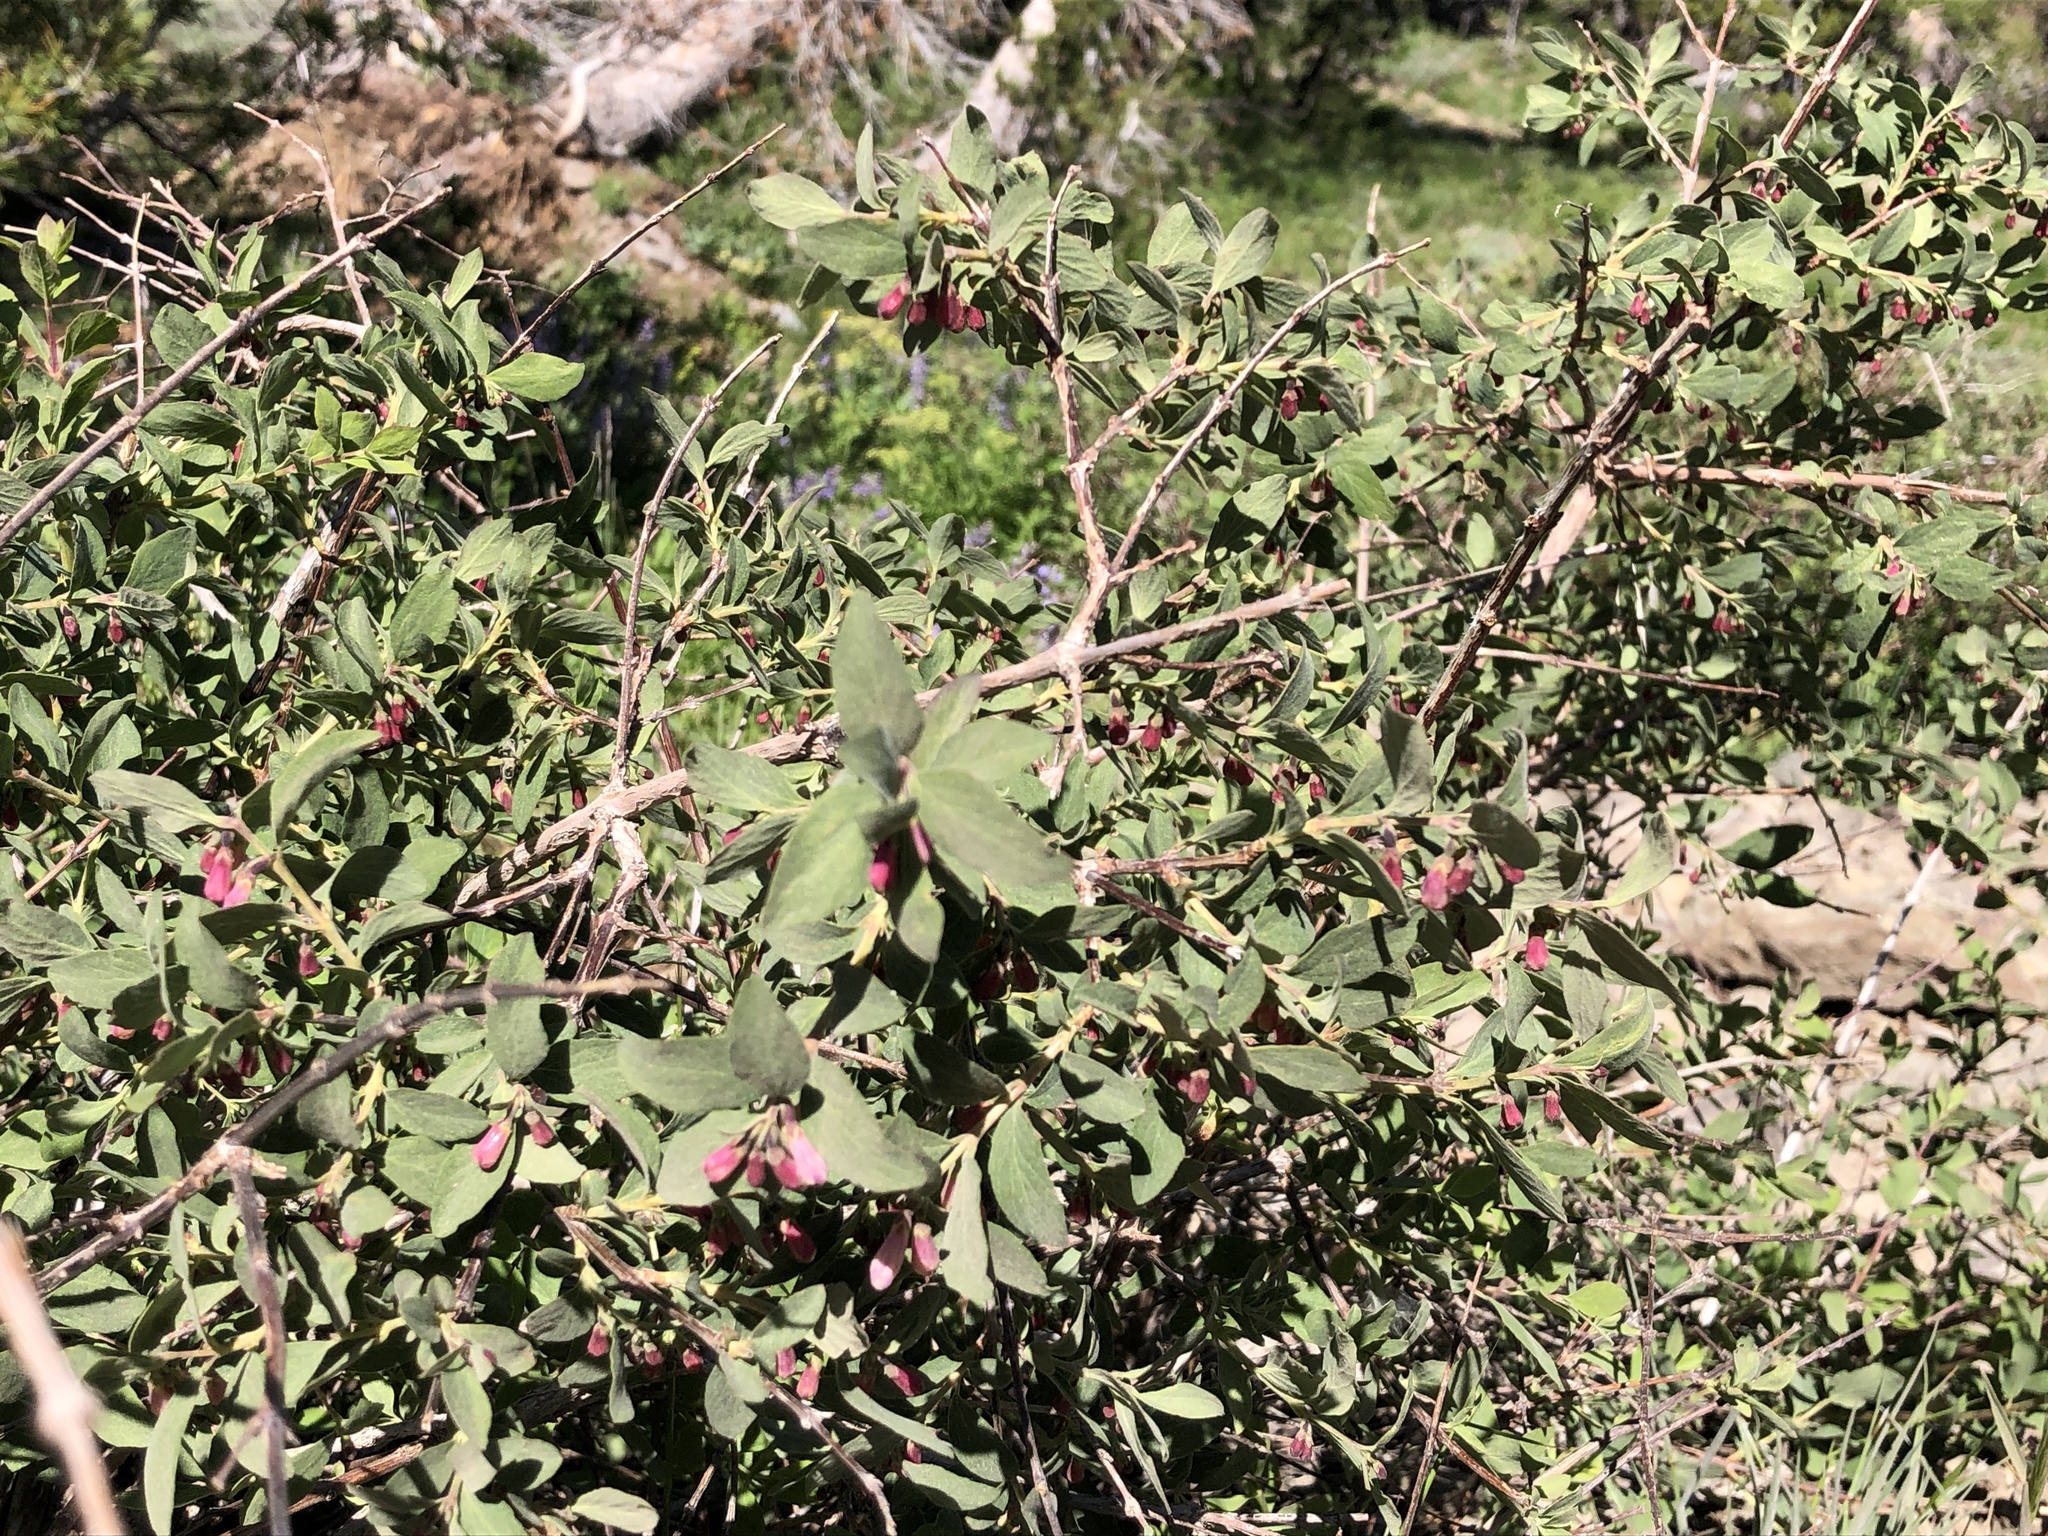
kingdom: Plantae
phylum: Tracheophyta
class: Magnoliopsida
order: Dipsacales
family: Caprifoliaceae
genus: Symphoricarpos
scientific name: Symphoricarpos rotundifolius
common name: Round-leaved snowberry
